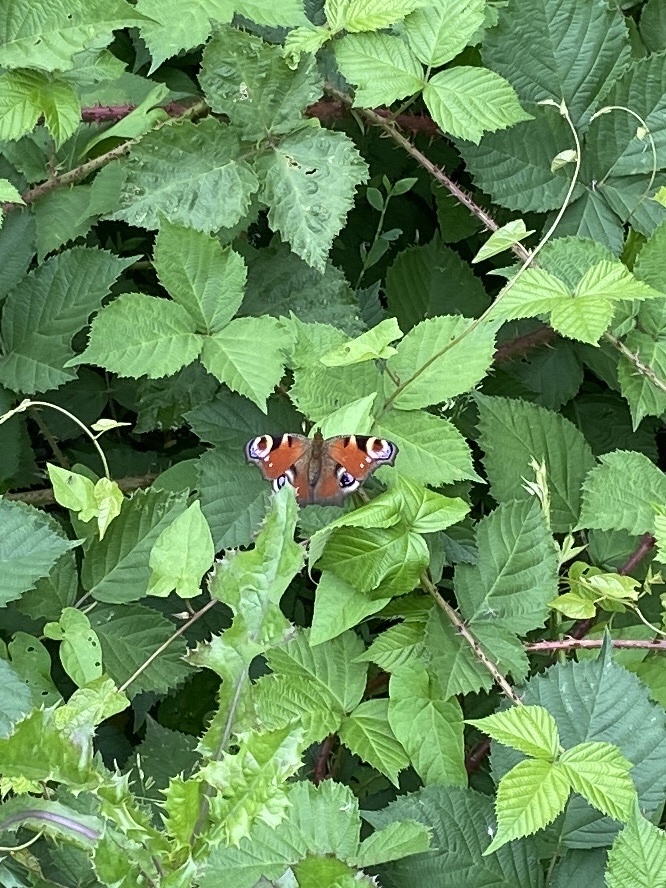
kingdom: Animalia
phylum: Arthropoda
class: Insecta
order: Lepidoptera
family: Nymphalidae
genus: Aglais
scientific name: Aglais io
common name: Peacock
